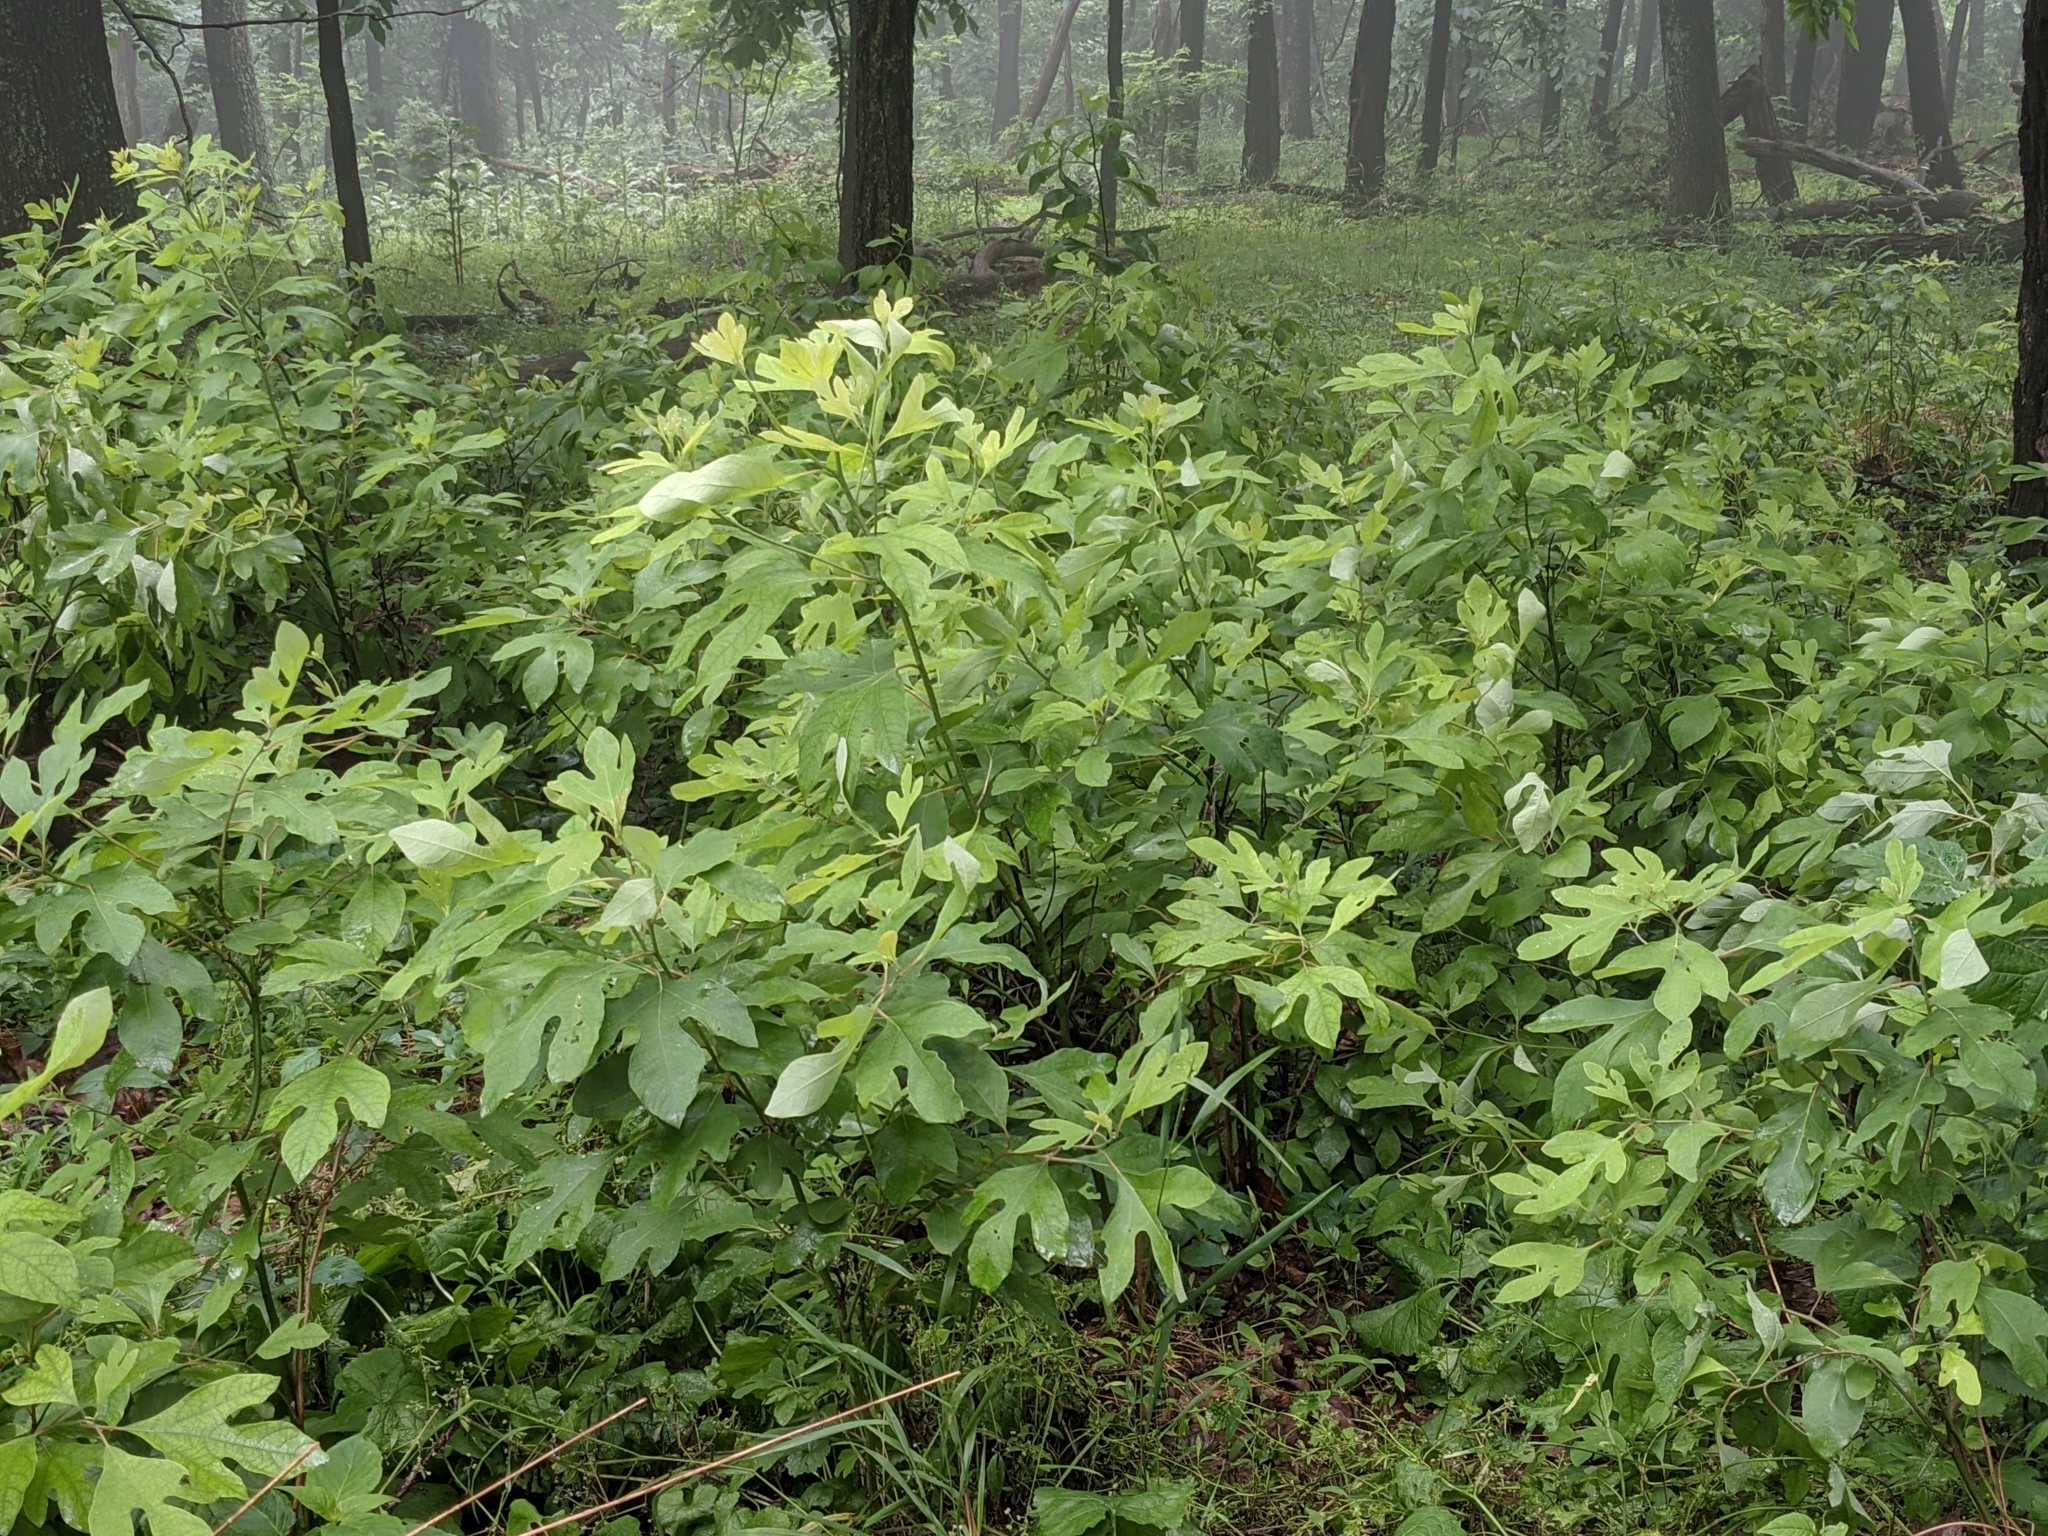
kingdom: Plantae
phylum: Tracheophyta
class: Magnoliopsida
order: Laurales
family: Lauraceae
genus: Sassafras
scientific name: Sassafras albidum
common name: Sassafras
